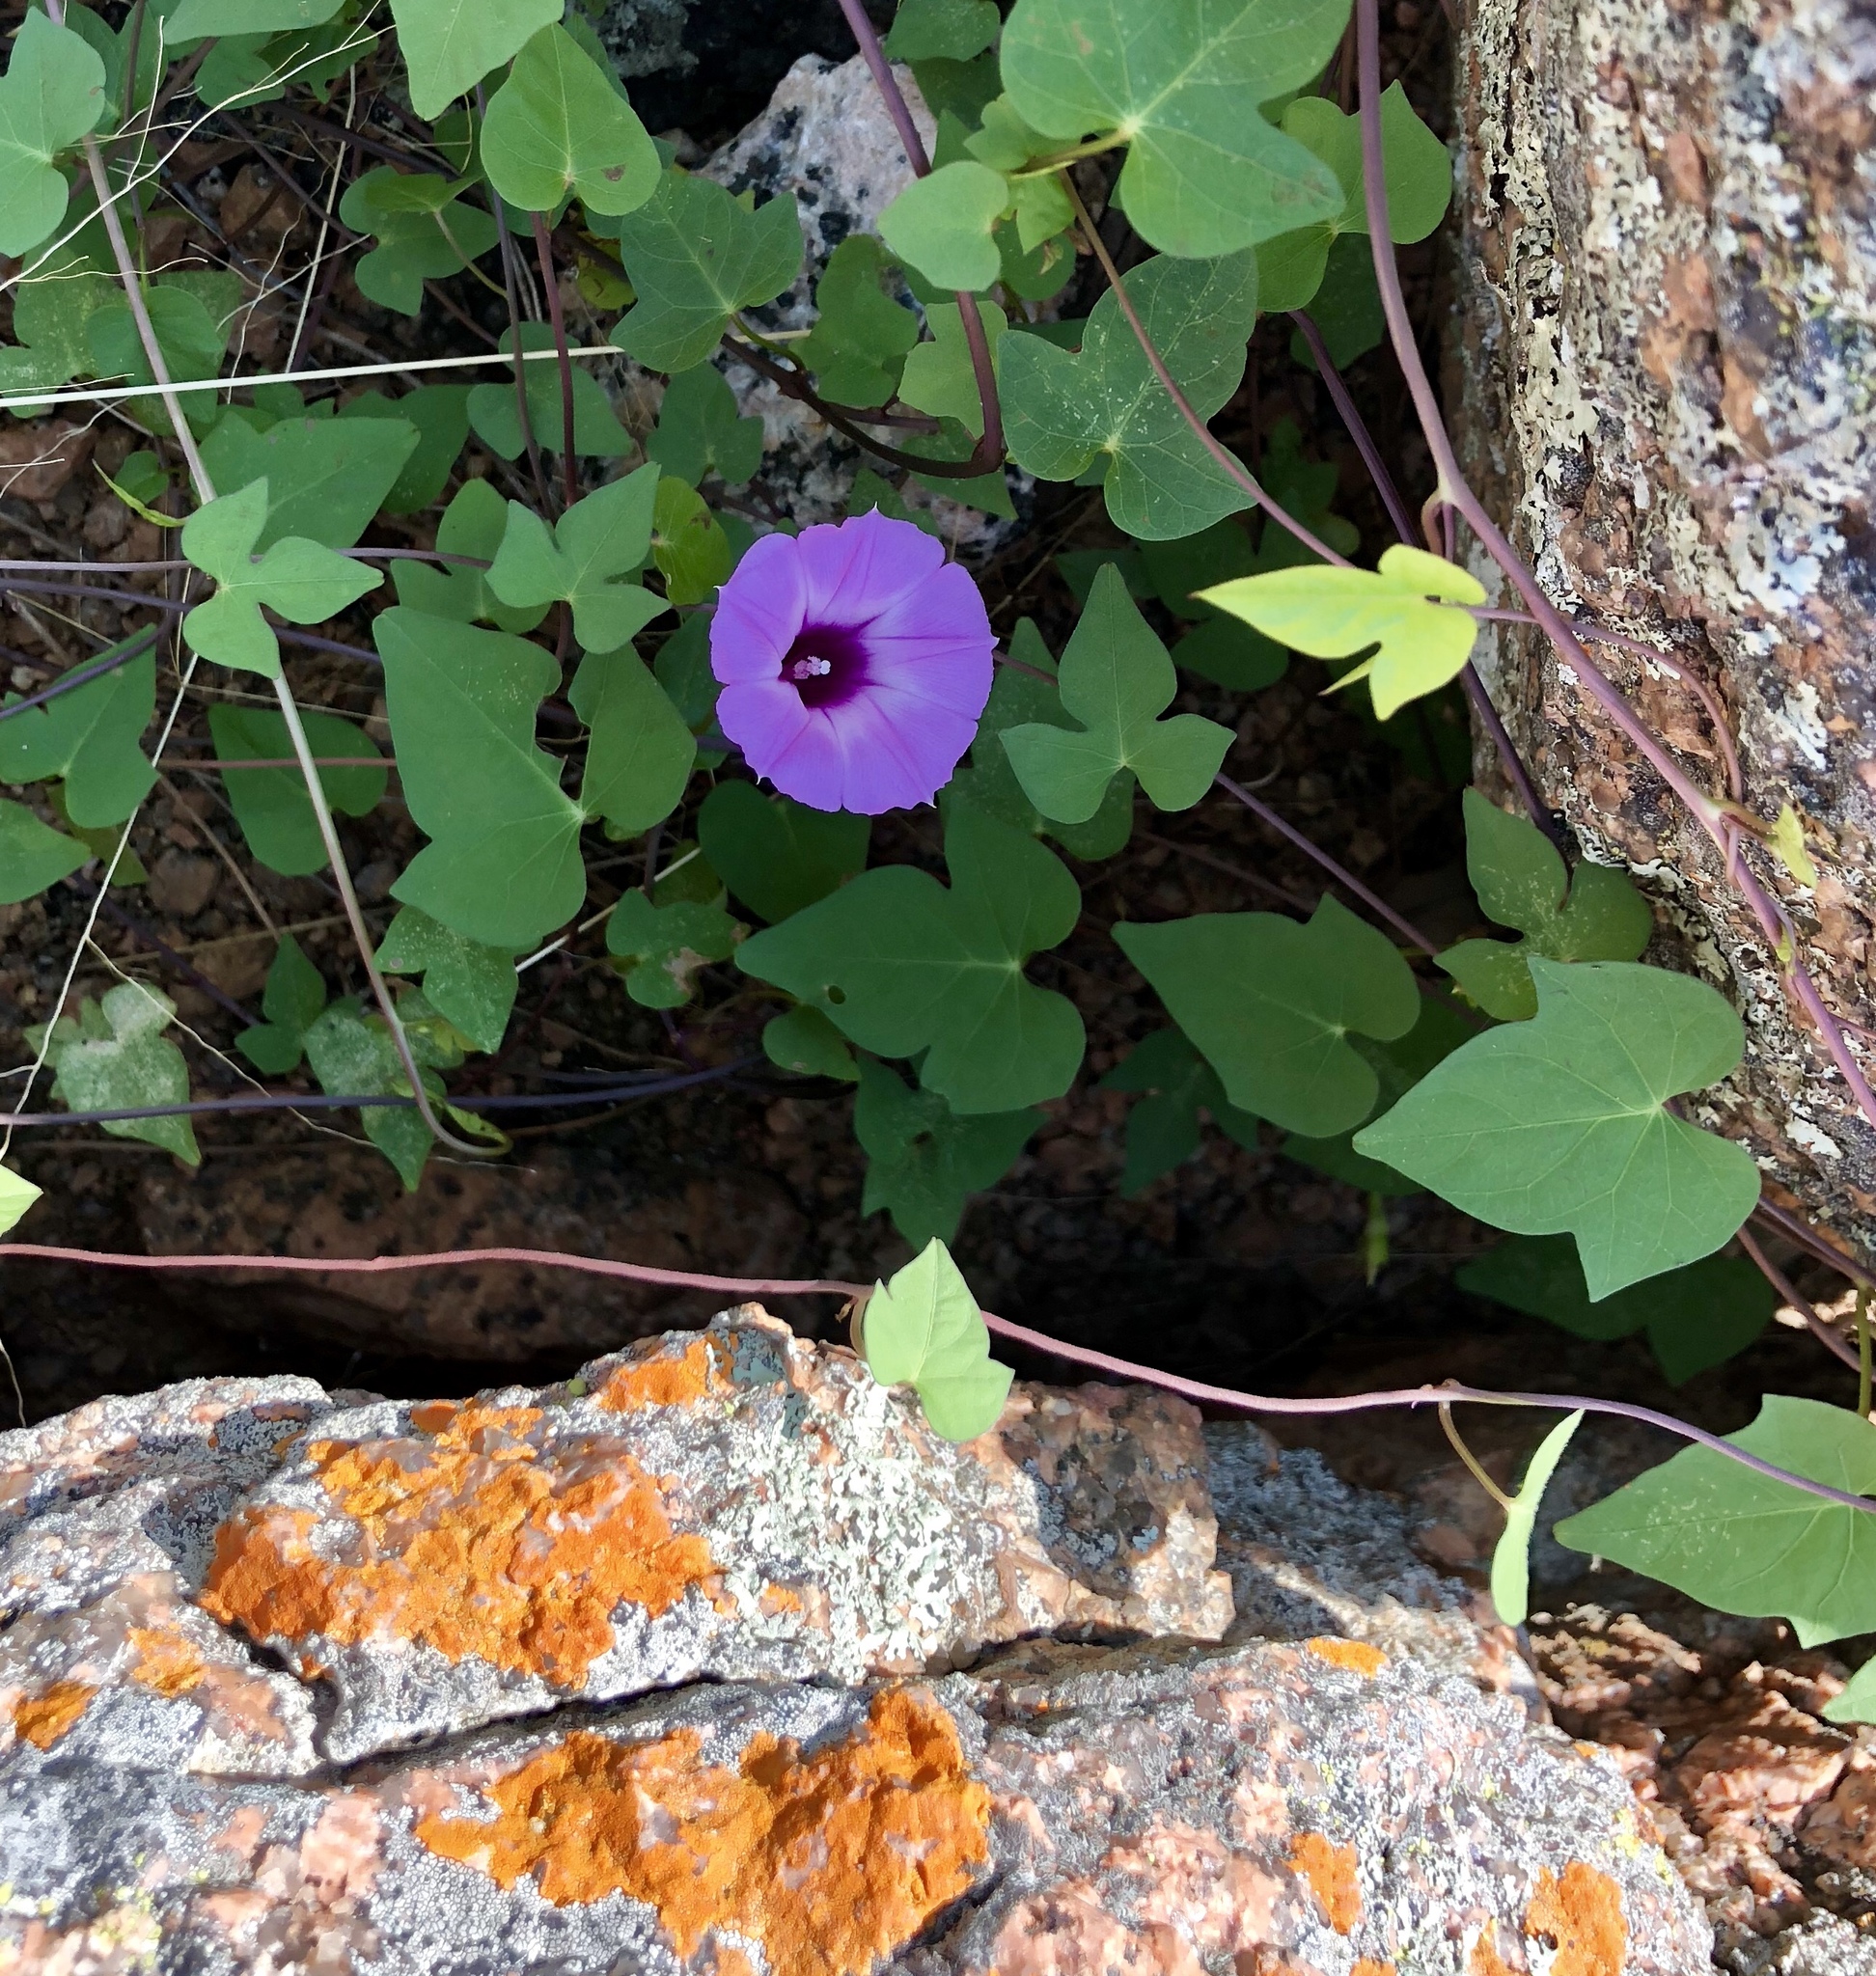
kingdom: Plantae
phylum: Tracheophyta
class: Magnoliopsida
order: Solanales
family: Convolvulaceae
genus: Ipomoea
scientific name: Ipomoea cordatotriloba
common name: Cotton morning glory
